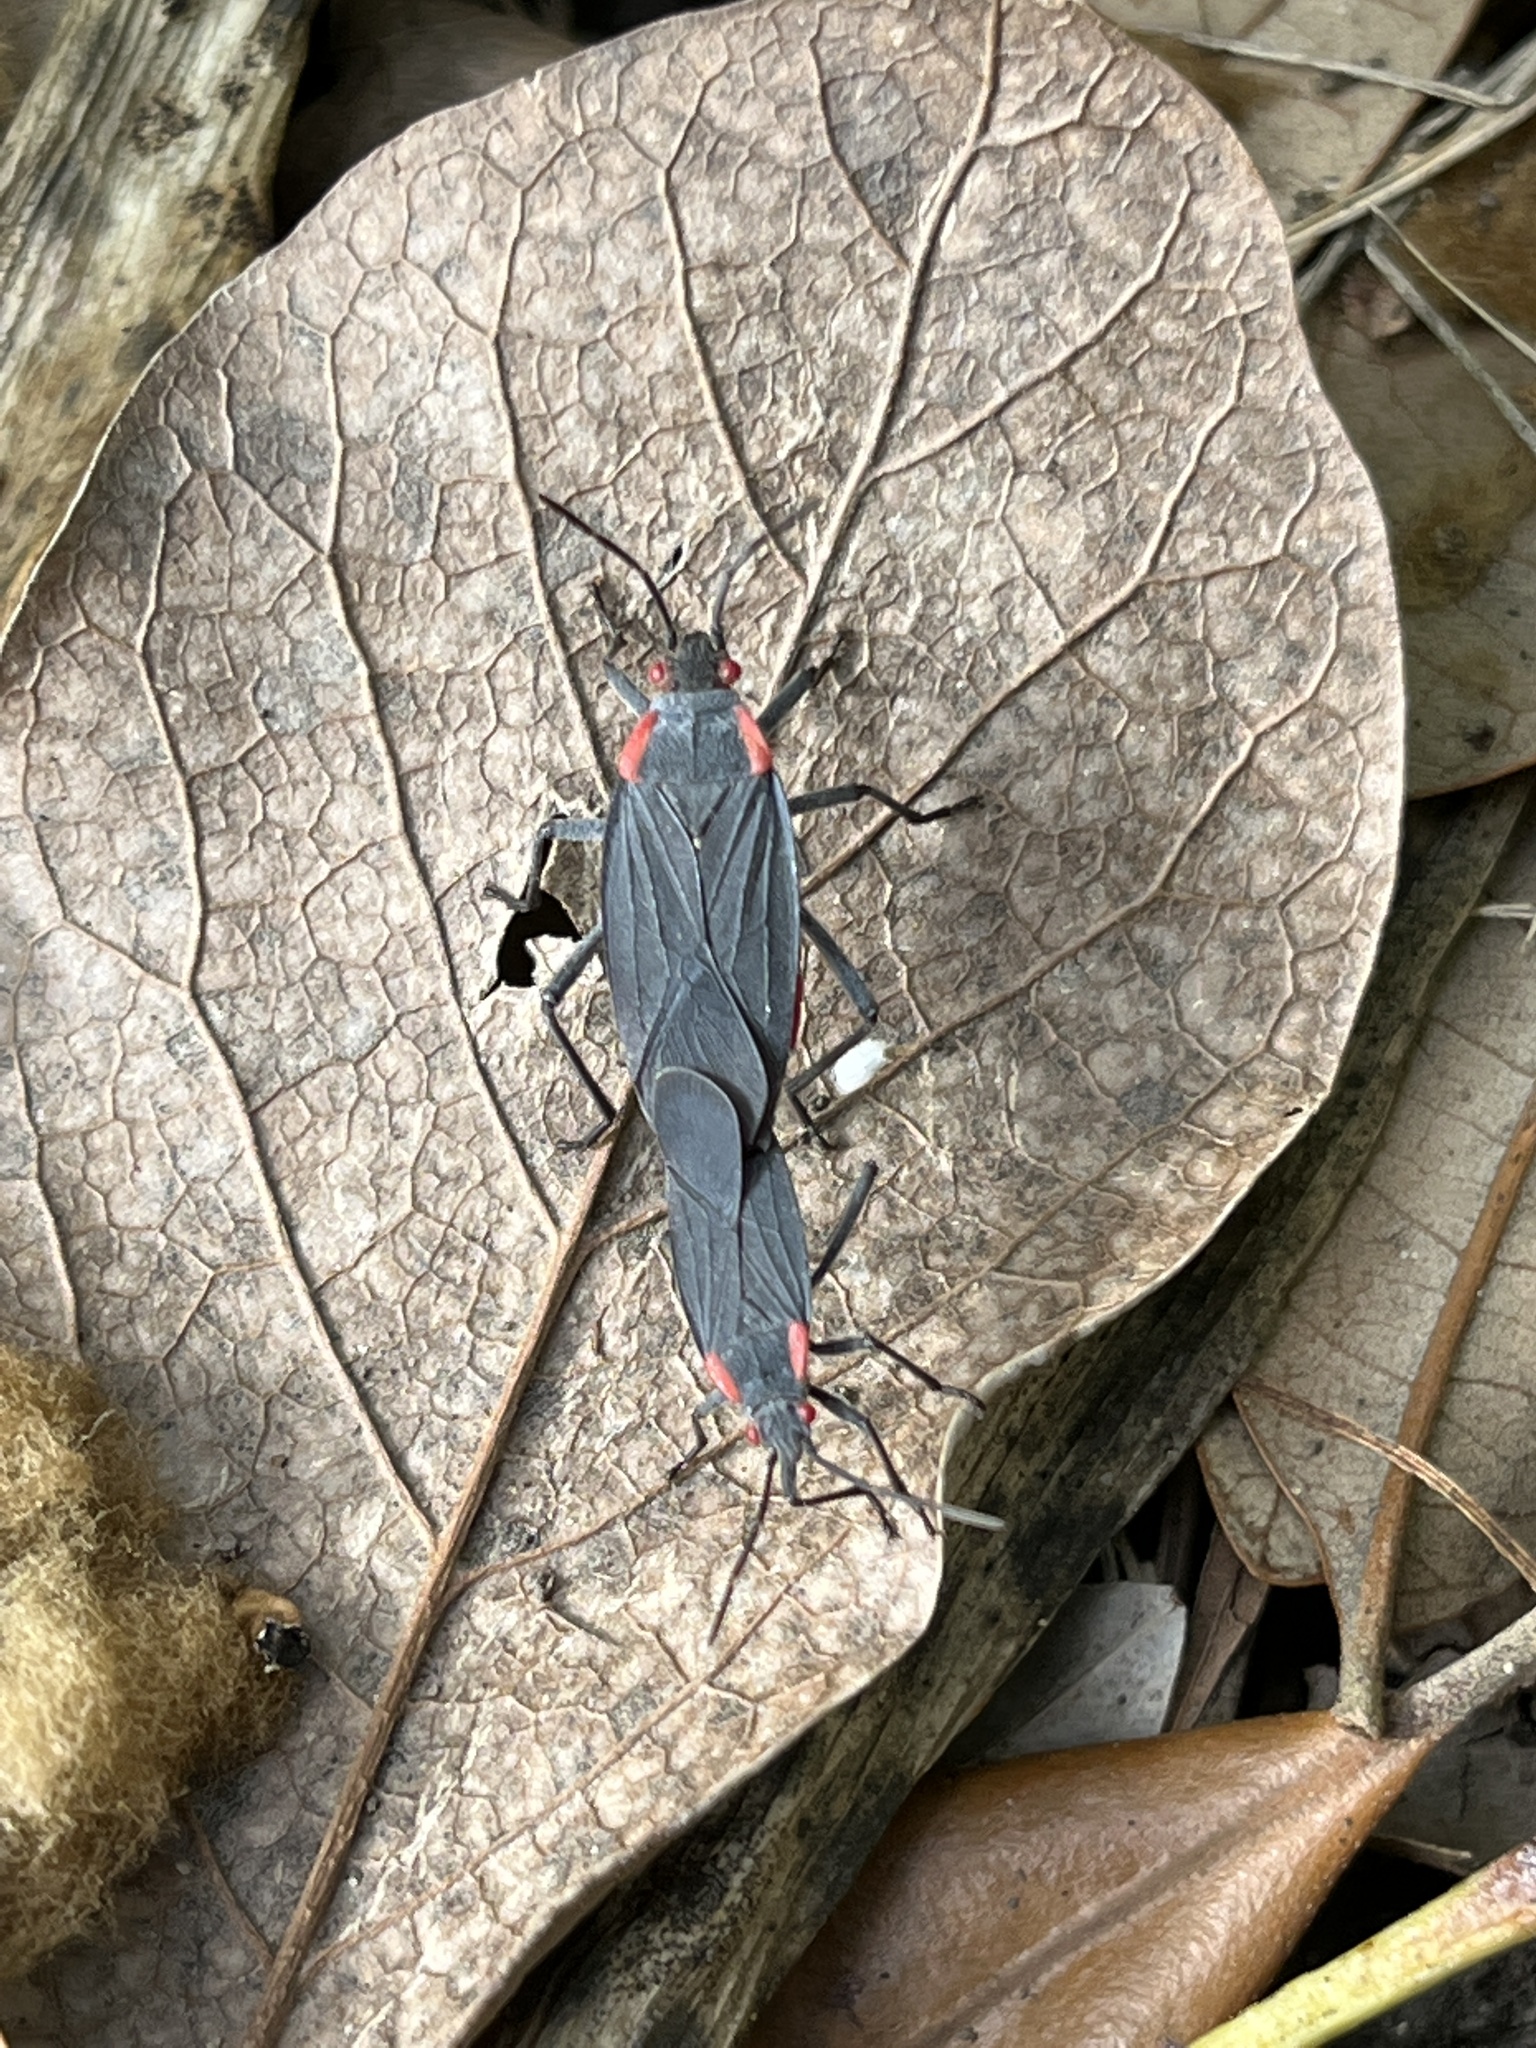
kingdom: Animalia
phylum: Arthropoda
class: Insecta
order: Hemiptera
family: Rhopalidae
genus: Jadera
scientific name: Jadera haematoloma
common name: Red-shouldered bug
